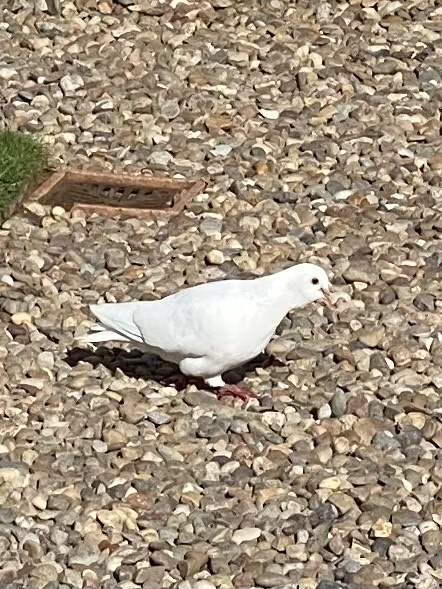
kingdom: Animalia
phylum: Chordata
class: Aves
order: Columbiformes
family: Columbidae
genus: Columba
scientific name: Columba livia
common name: Rock pigeon
